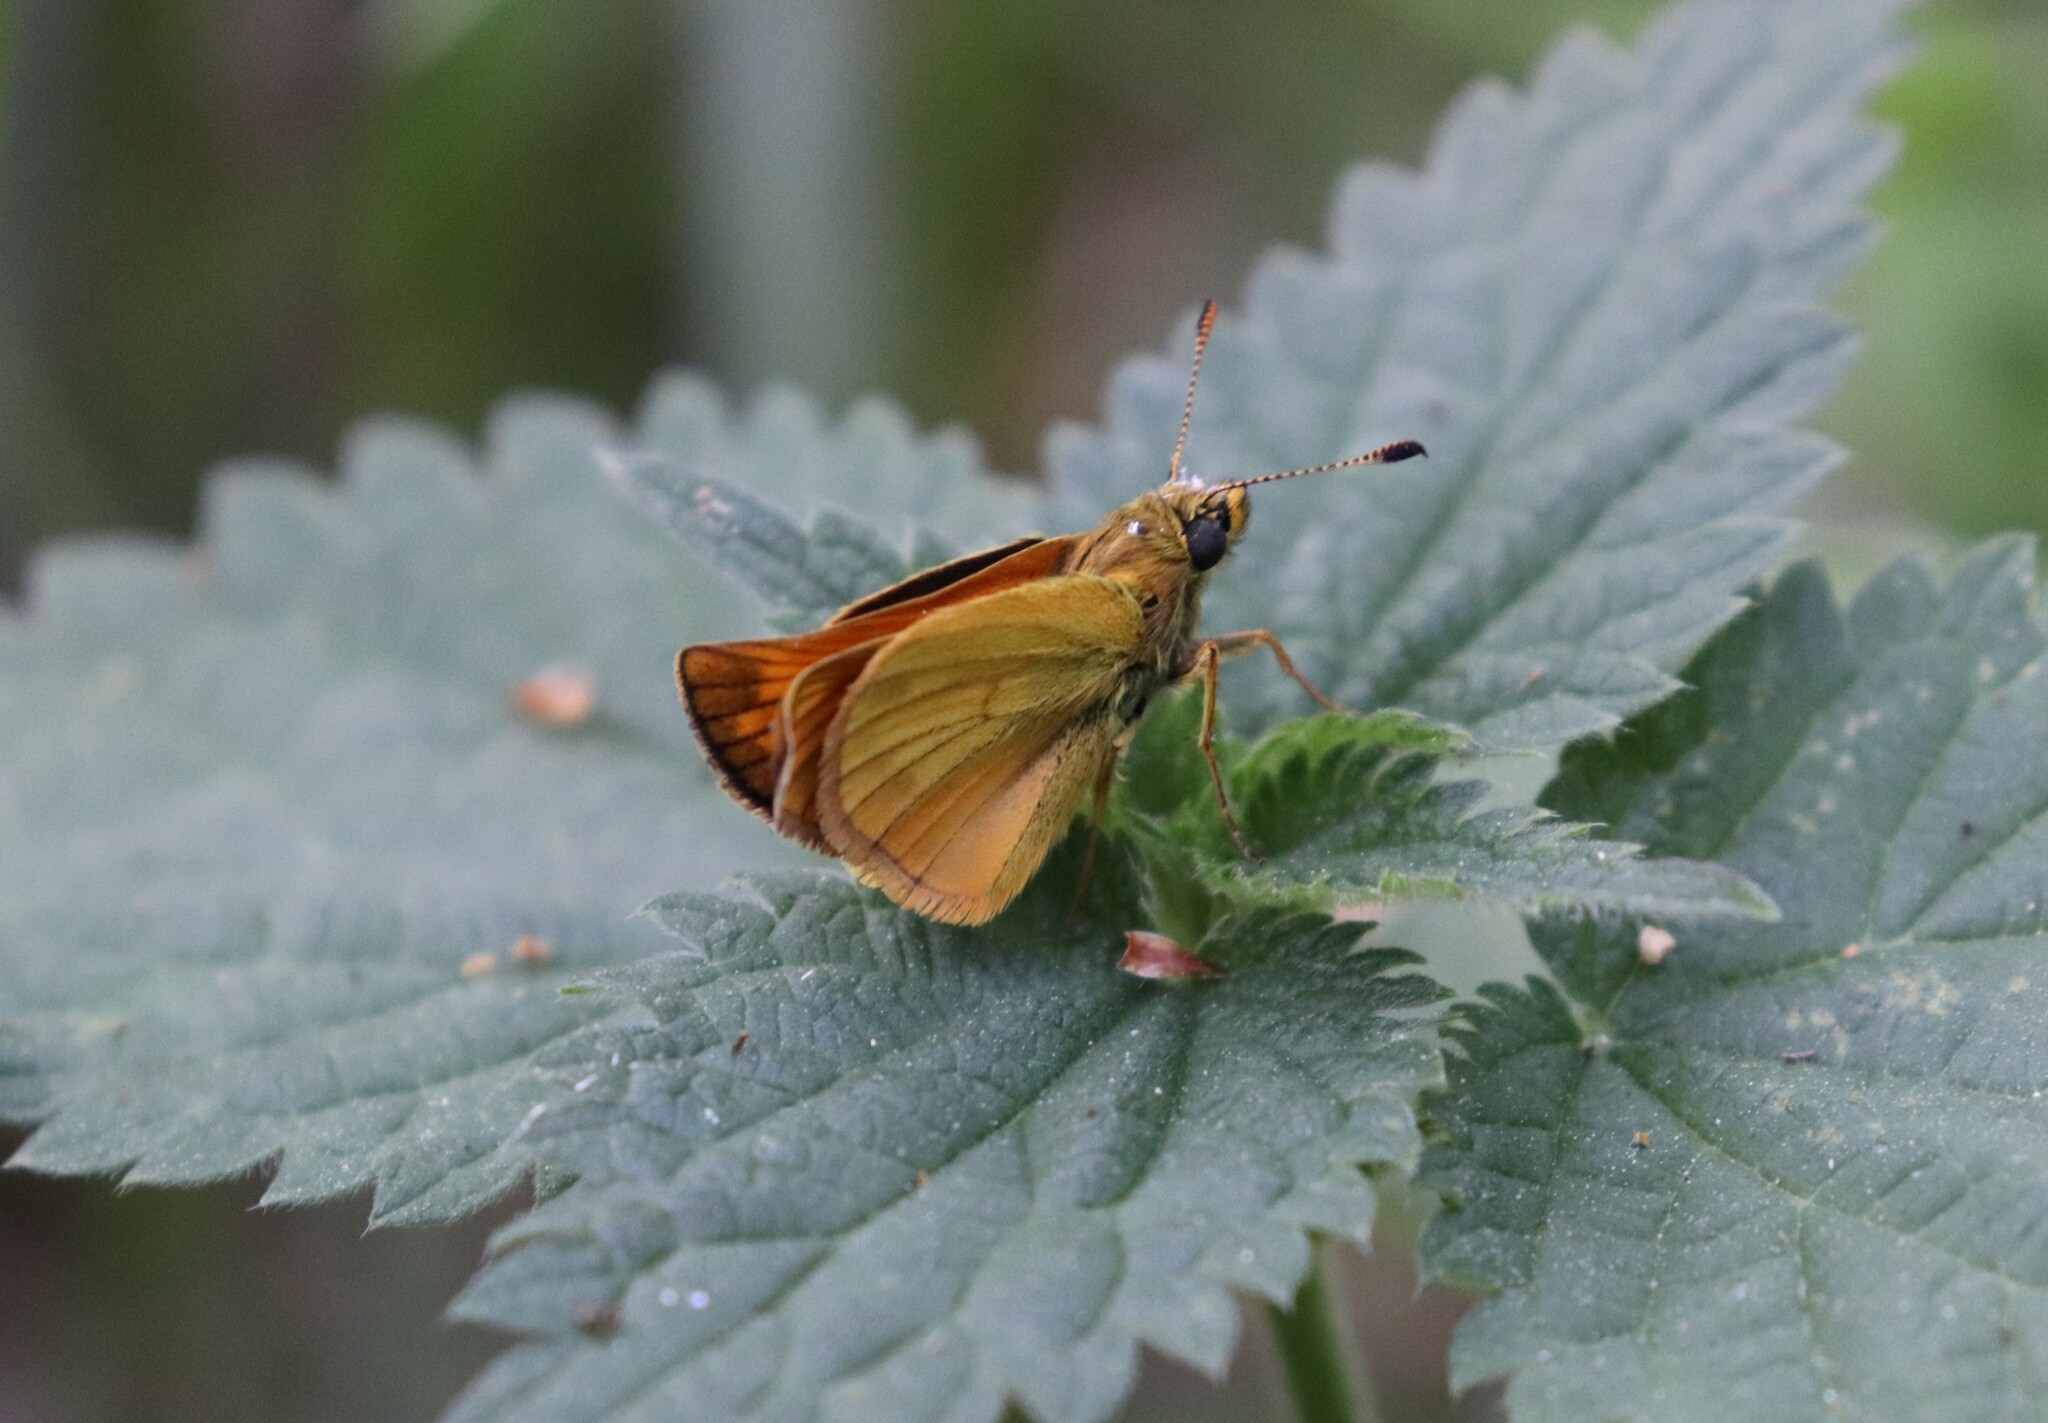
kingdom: Animalia
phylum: Arthropoda
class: Insecta
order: Lepidoptera
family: Hesperiidae
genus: Ochlodes
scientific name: Ochlodes venata
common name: Large skipper
